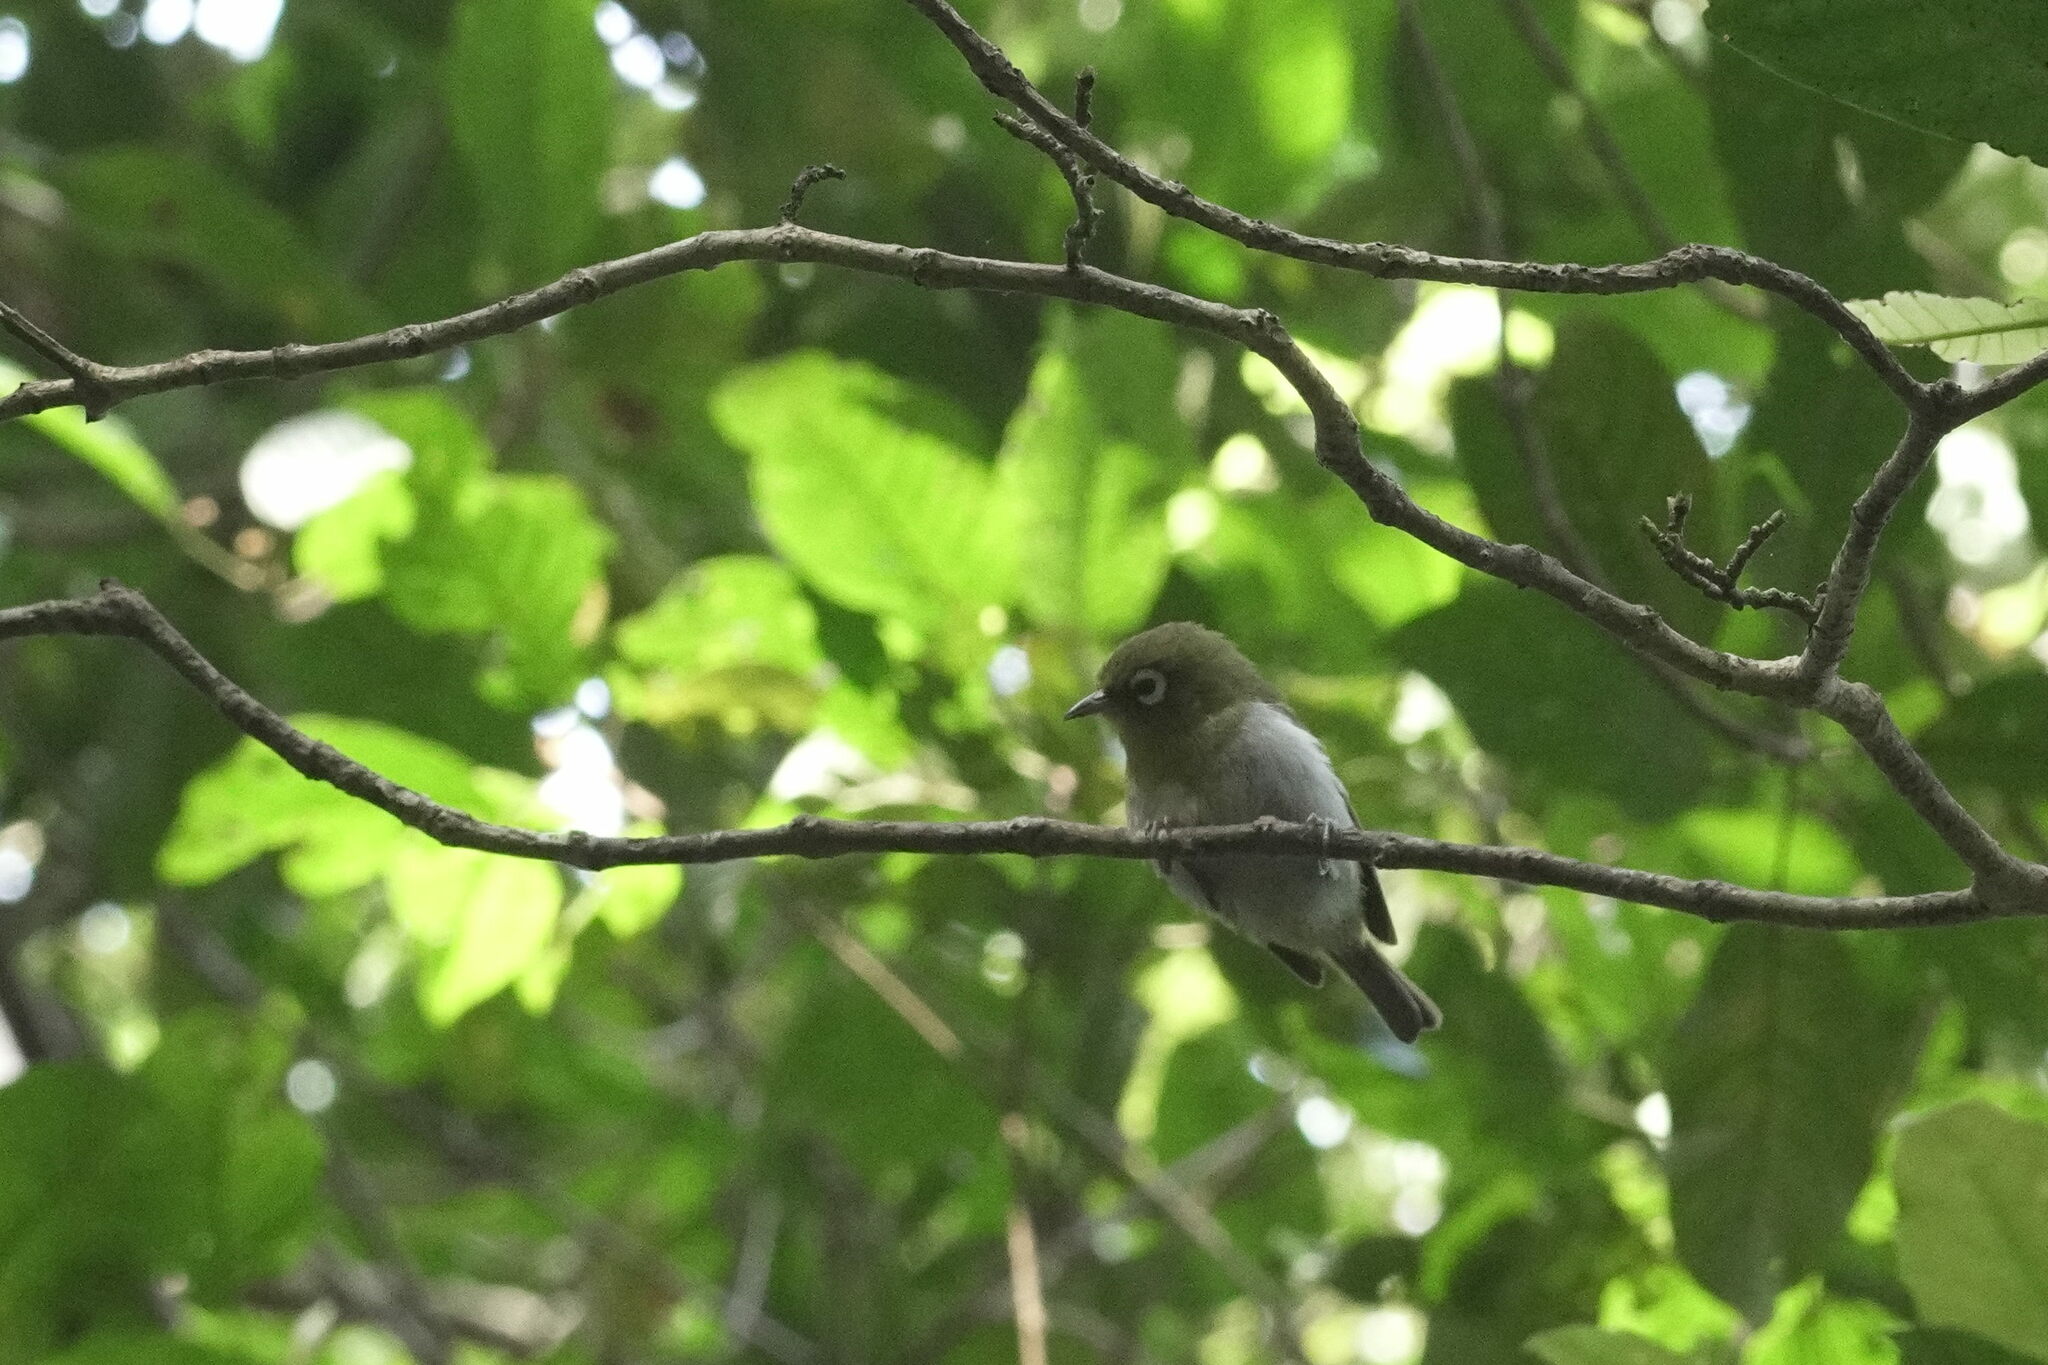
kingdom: Animalia
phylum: Chordata
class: Aves
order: Passeriformes
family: Zosteropidae
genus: Zosterops
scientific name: Zosterops lateralis
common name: Silvereye
